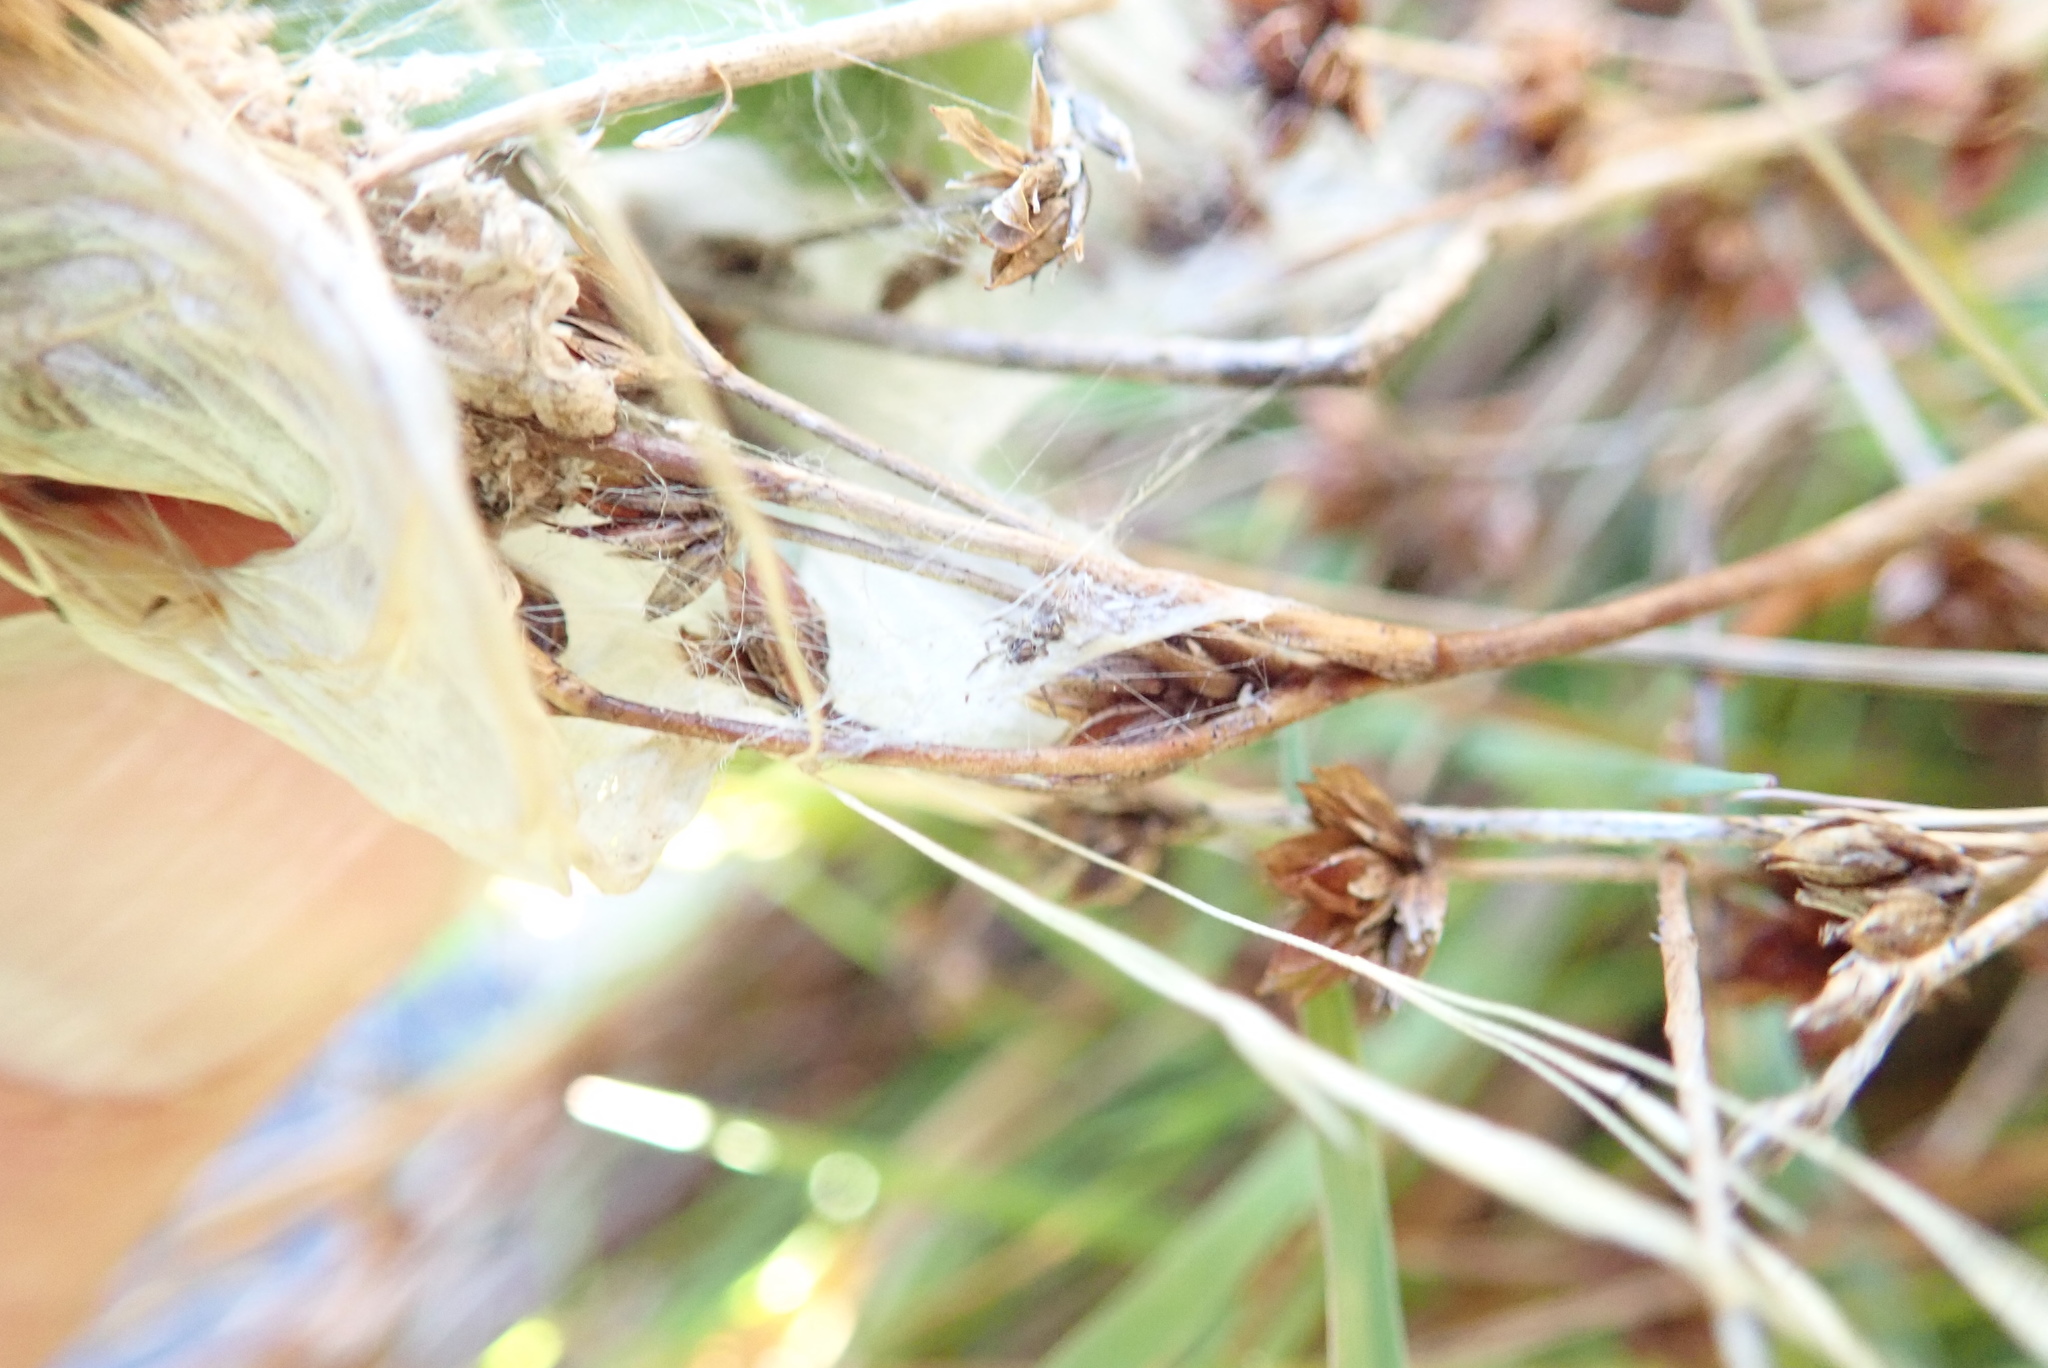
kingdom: Animalia
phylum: Arthropoda
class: Arachnida
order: Araneae
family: Pisauridae
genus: Dolomedes
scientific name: Dolomedes minor
